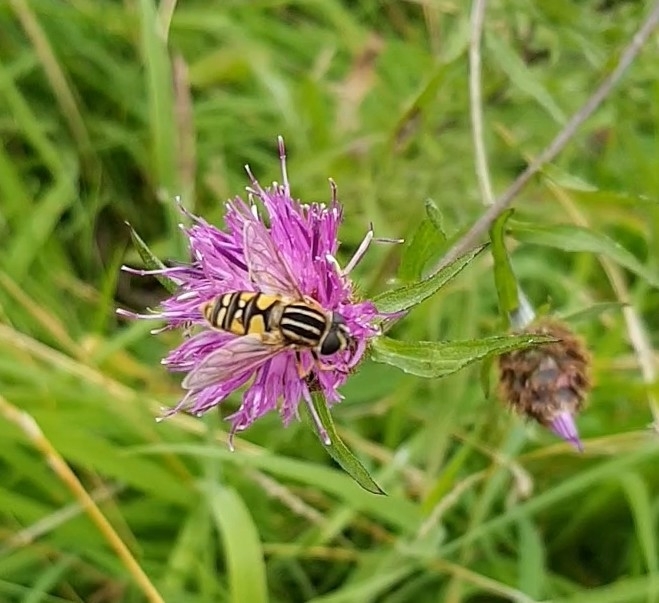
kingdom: Animalia
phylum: Arthropoda
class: Insecta
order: Diptera
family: Syrphidae
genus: Helophilus
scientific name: Helophilus pendulus
